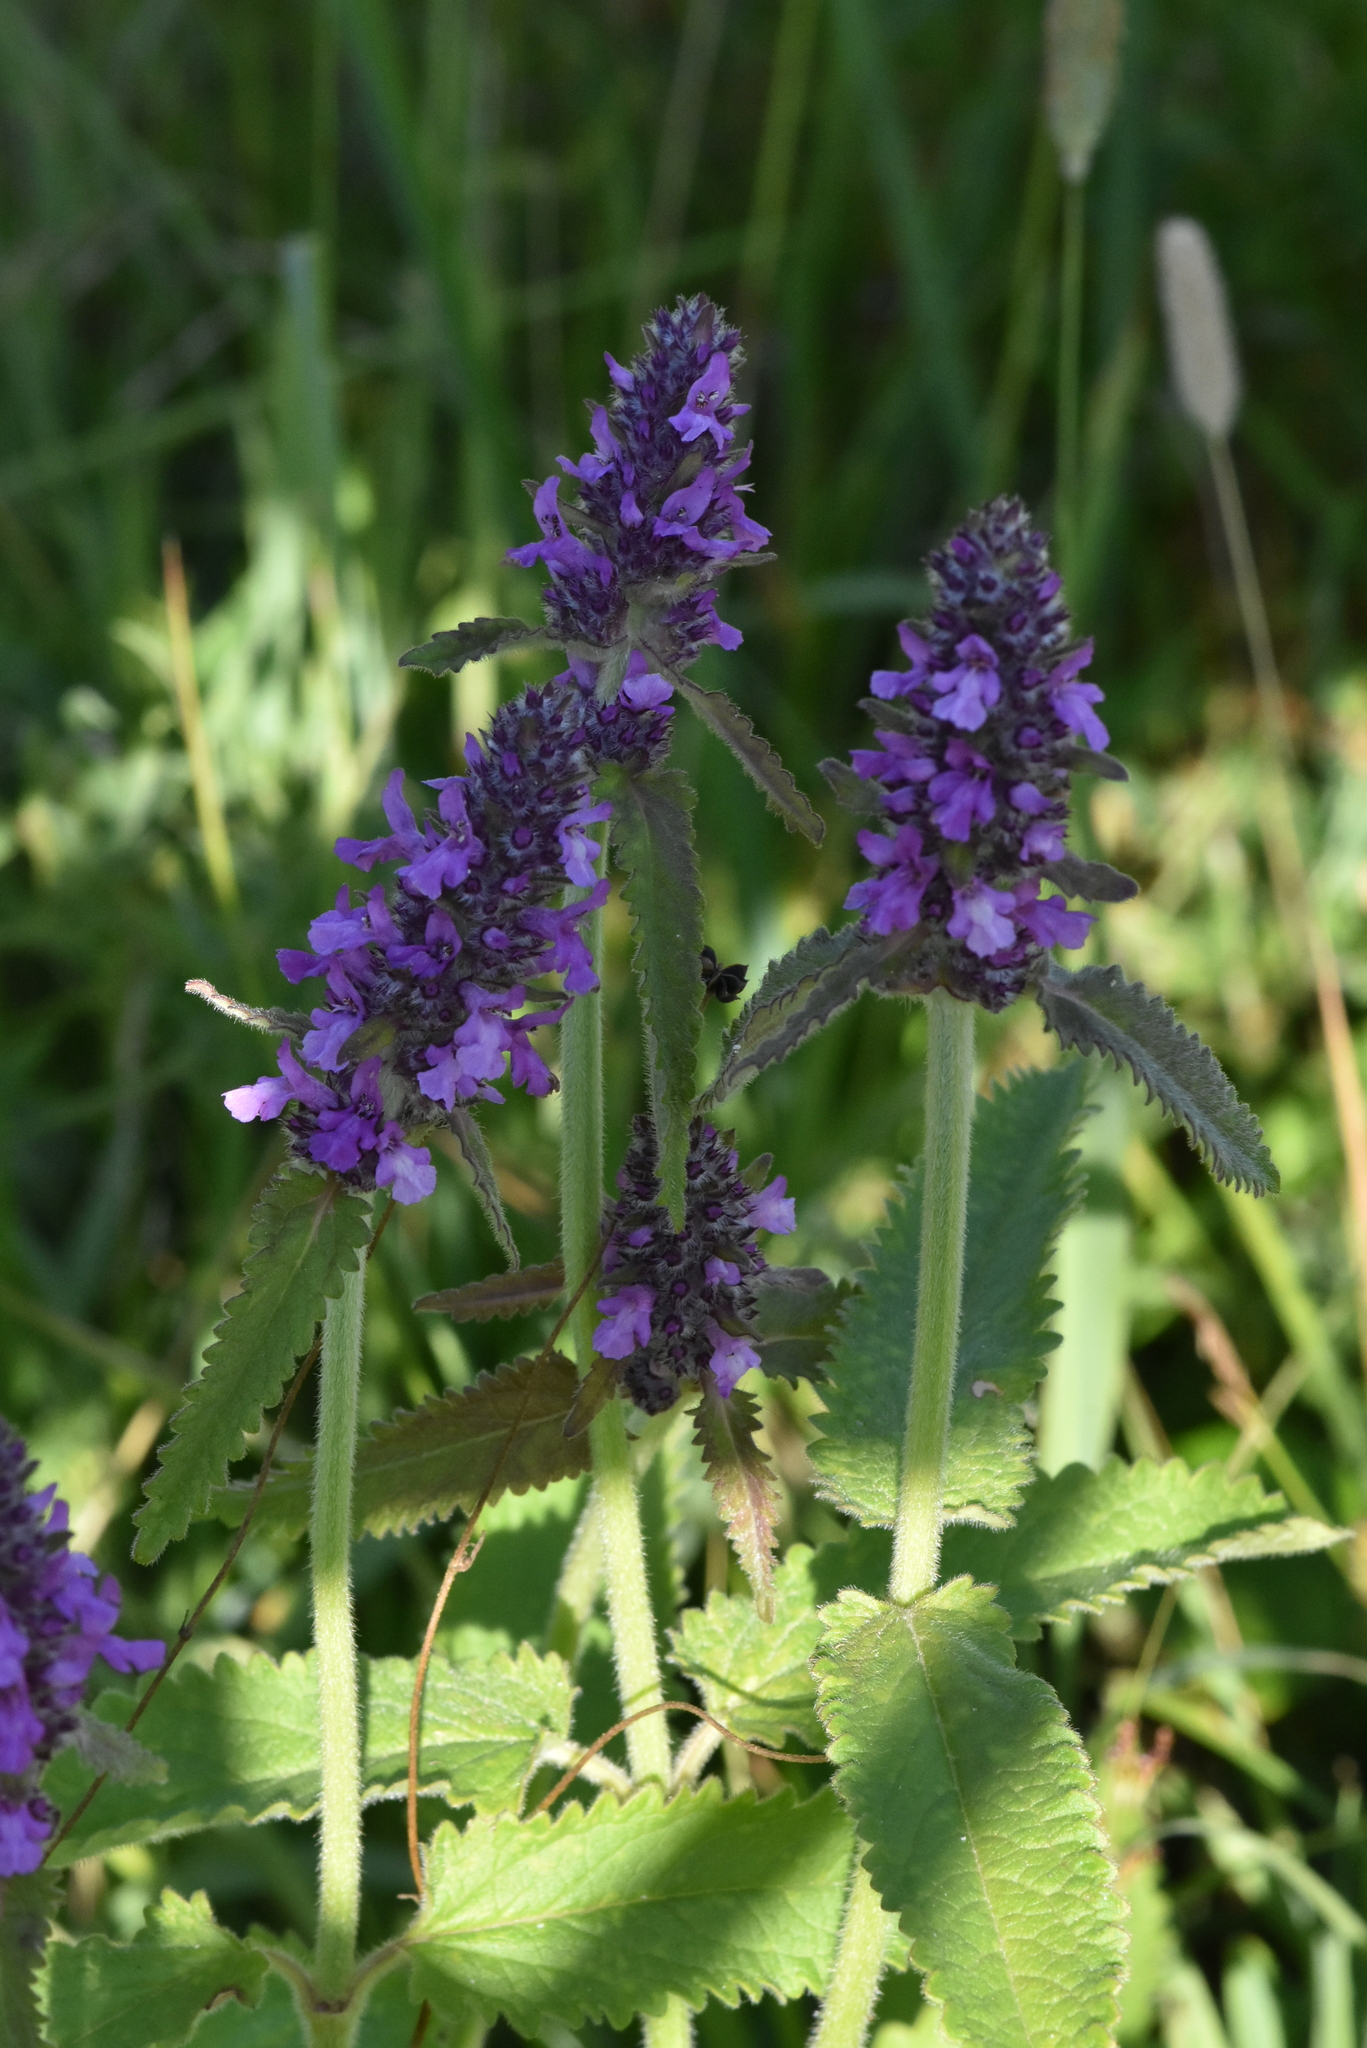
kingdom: Plantae
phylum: Tracheophyta
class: Magnoliopsida
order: Lamiales
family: Lamiaceae
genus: Betonica
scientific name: Betonica officinalis
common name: Bishop's-wort
